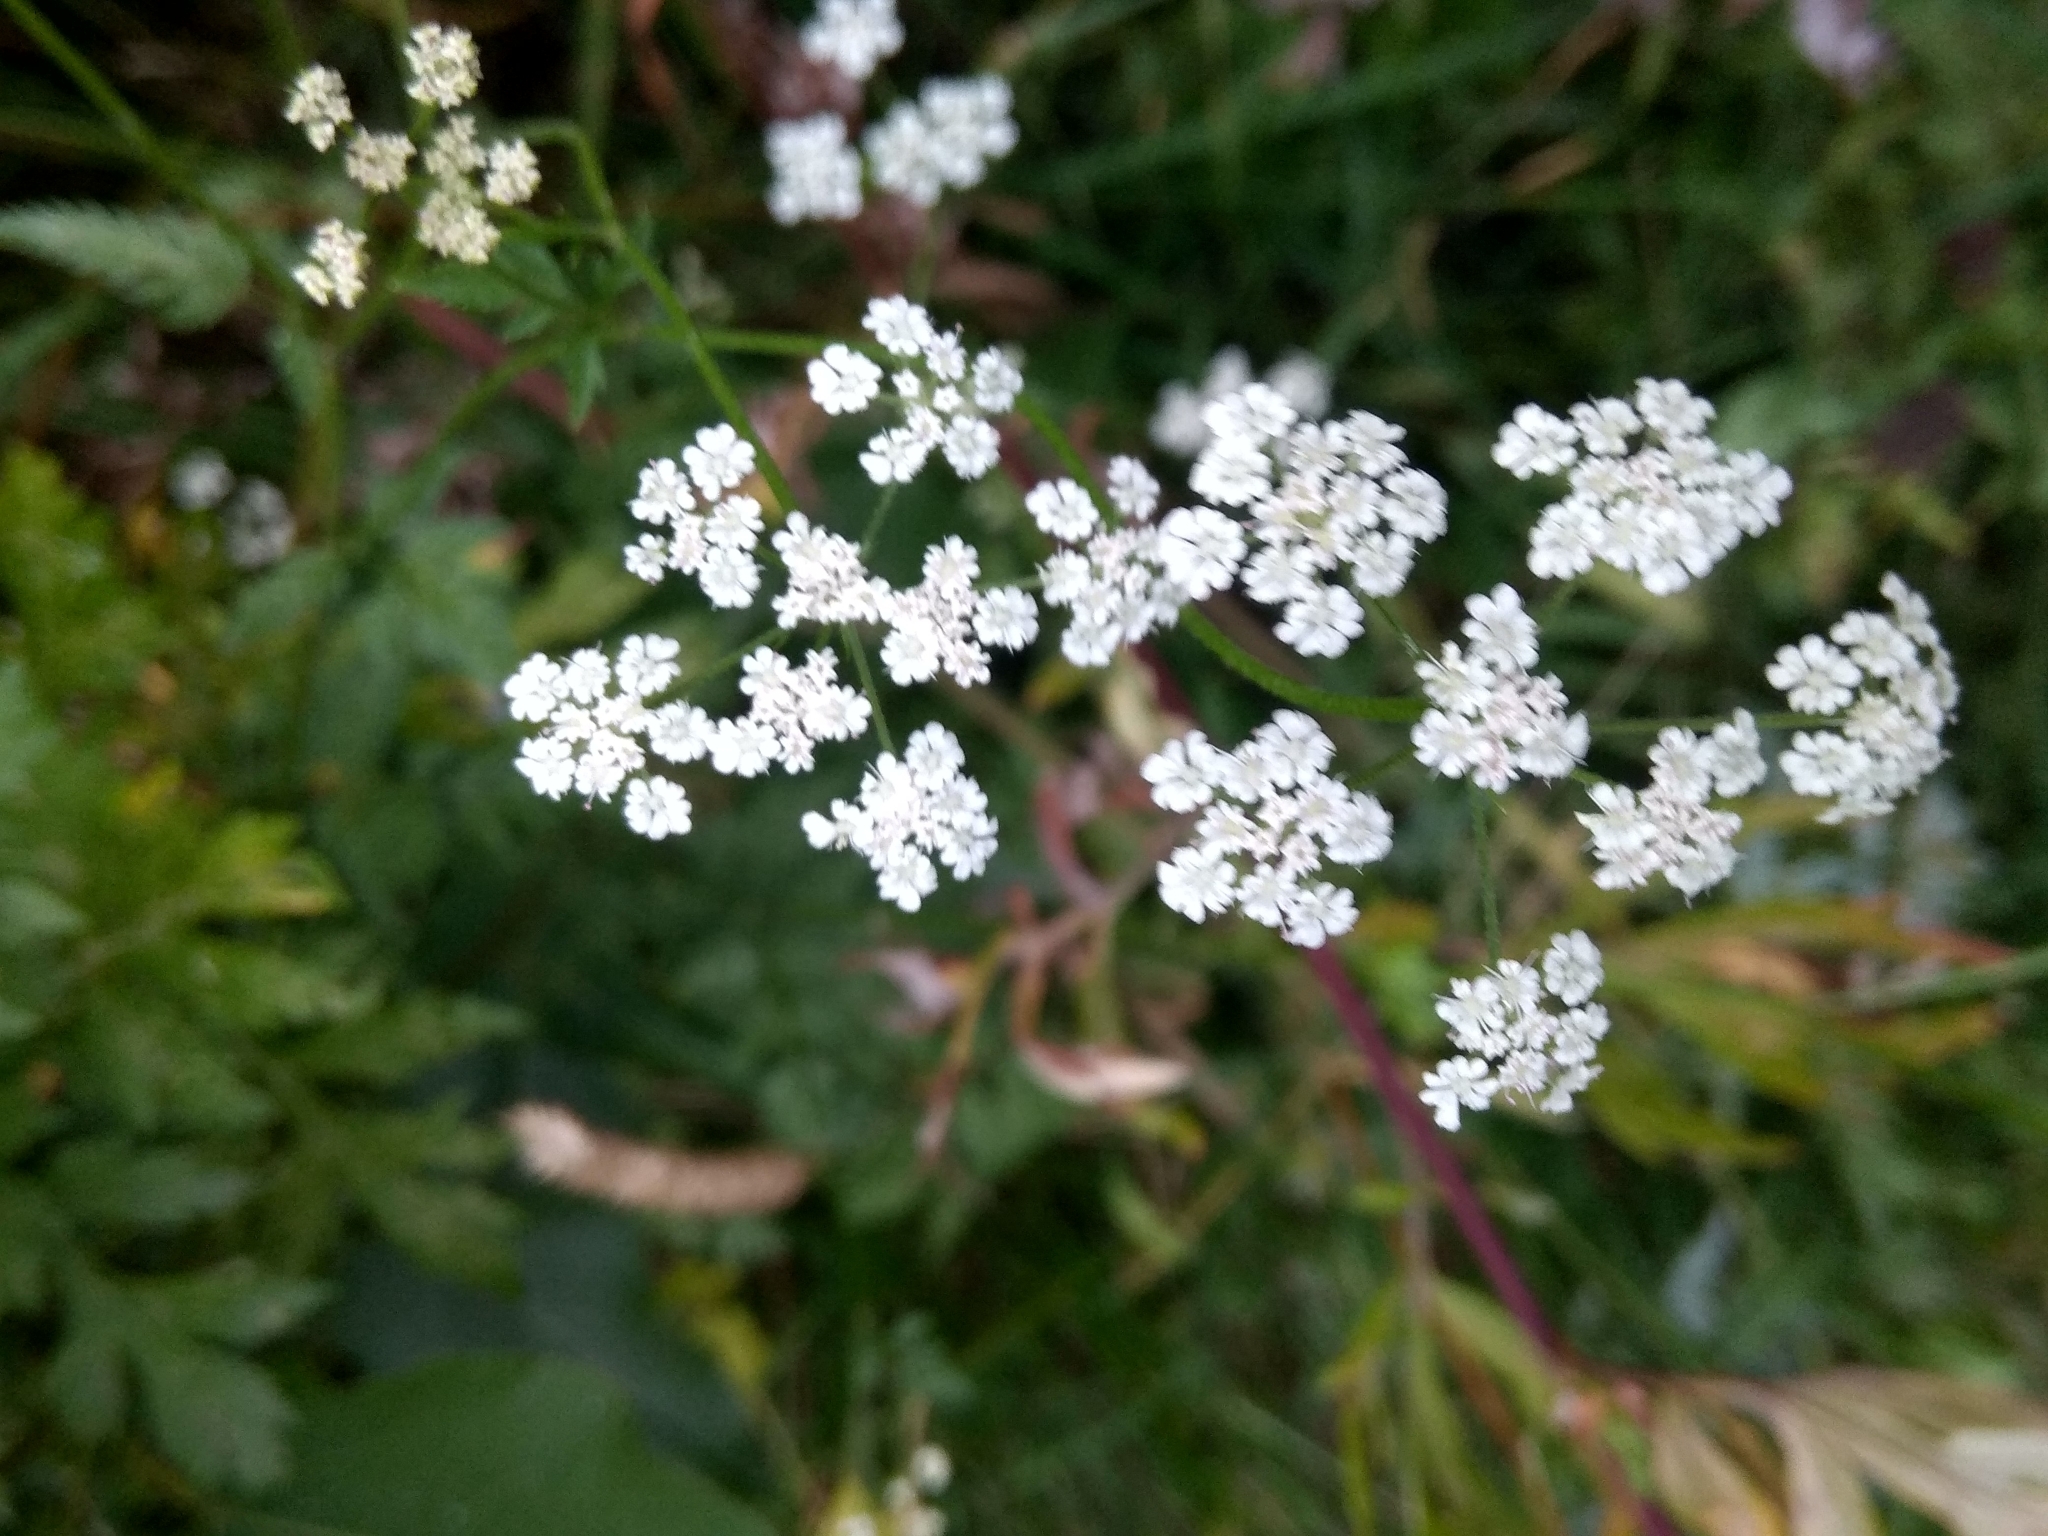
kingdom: Plantae
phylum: Tracheophyta
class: Magnoliopsida
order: Apiales
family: Apiaceae
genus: Torilis
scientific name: Torilis japonica
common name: Upright hedge-parsley
